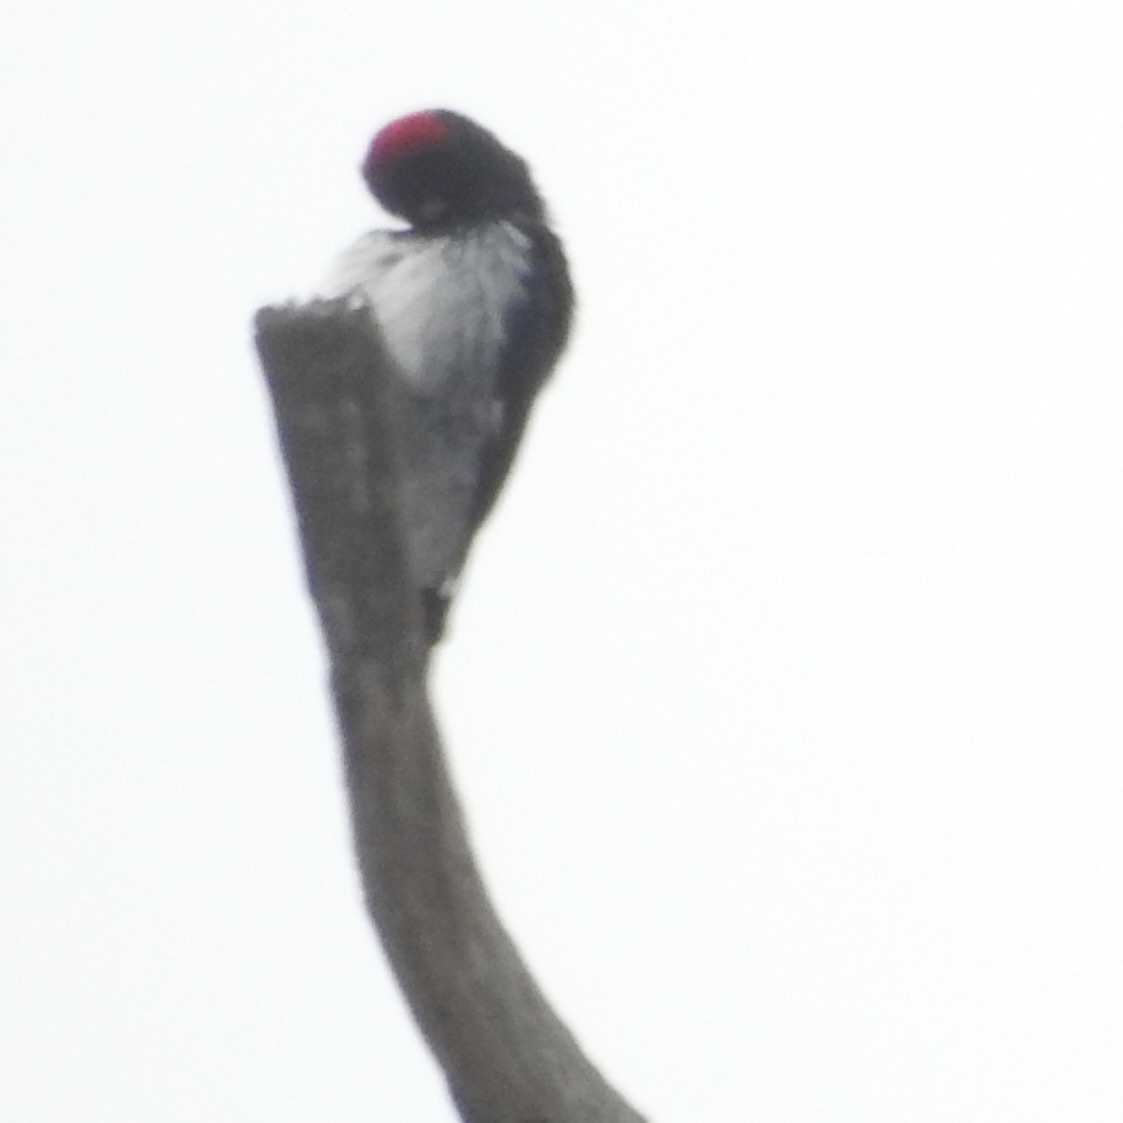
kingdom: Animalia
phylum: Chordata
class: Aves
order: Piciformes
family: Picidae
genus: Melanerpes
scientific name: Melanerpes formicivorus
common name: Acorn woodpecker
